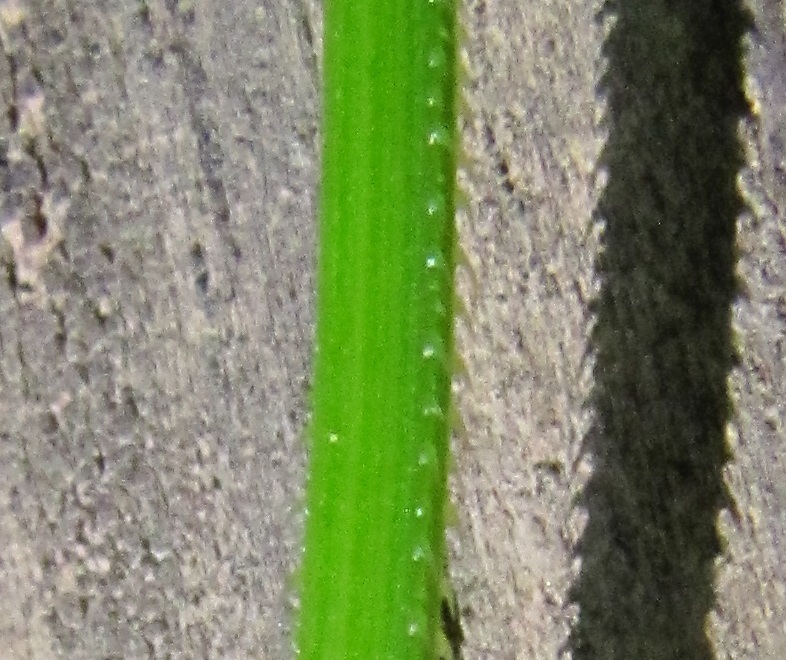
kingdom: Plantae
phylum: Tracheophyta
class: Magnoliopsida
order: Caryophyllales
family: Polygonaceae
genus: Persicaria
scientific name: Persicaria sagittata
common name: American tearthumb
